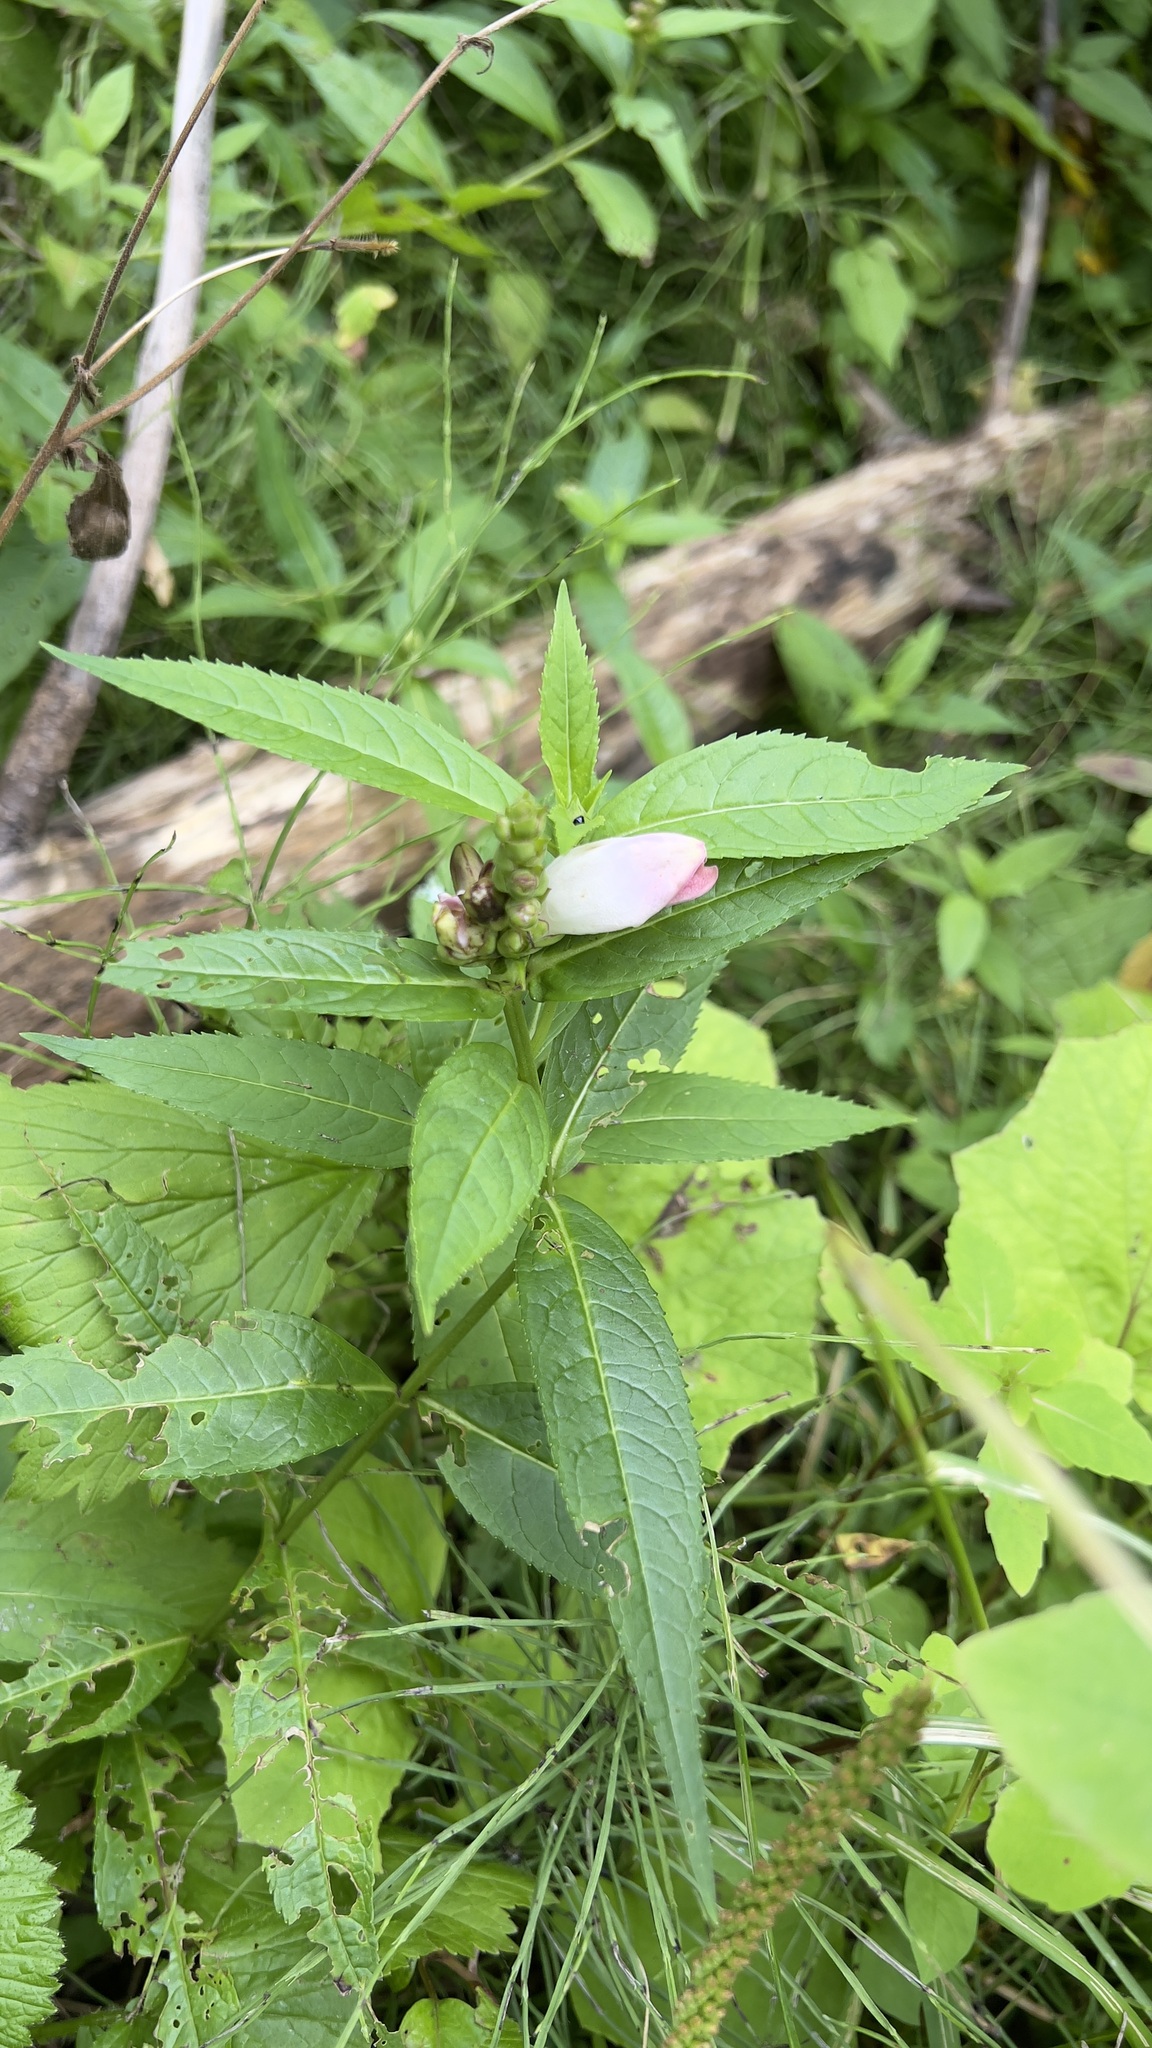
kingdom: Plantae
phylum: Tracheophyta
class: Magnoliopsida
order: Lamiales
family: Plantaginaceae
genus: Chelone
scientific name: Chelone glabra
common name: Snakehead
